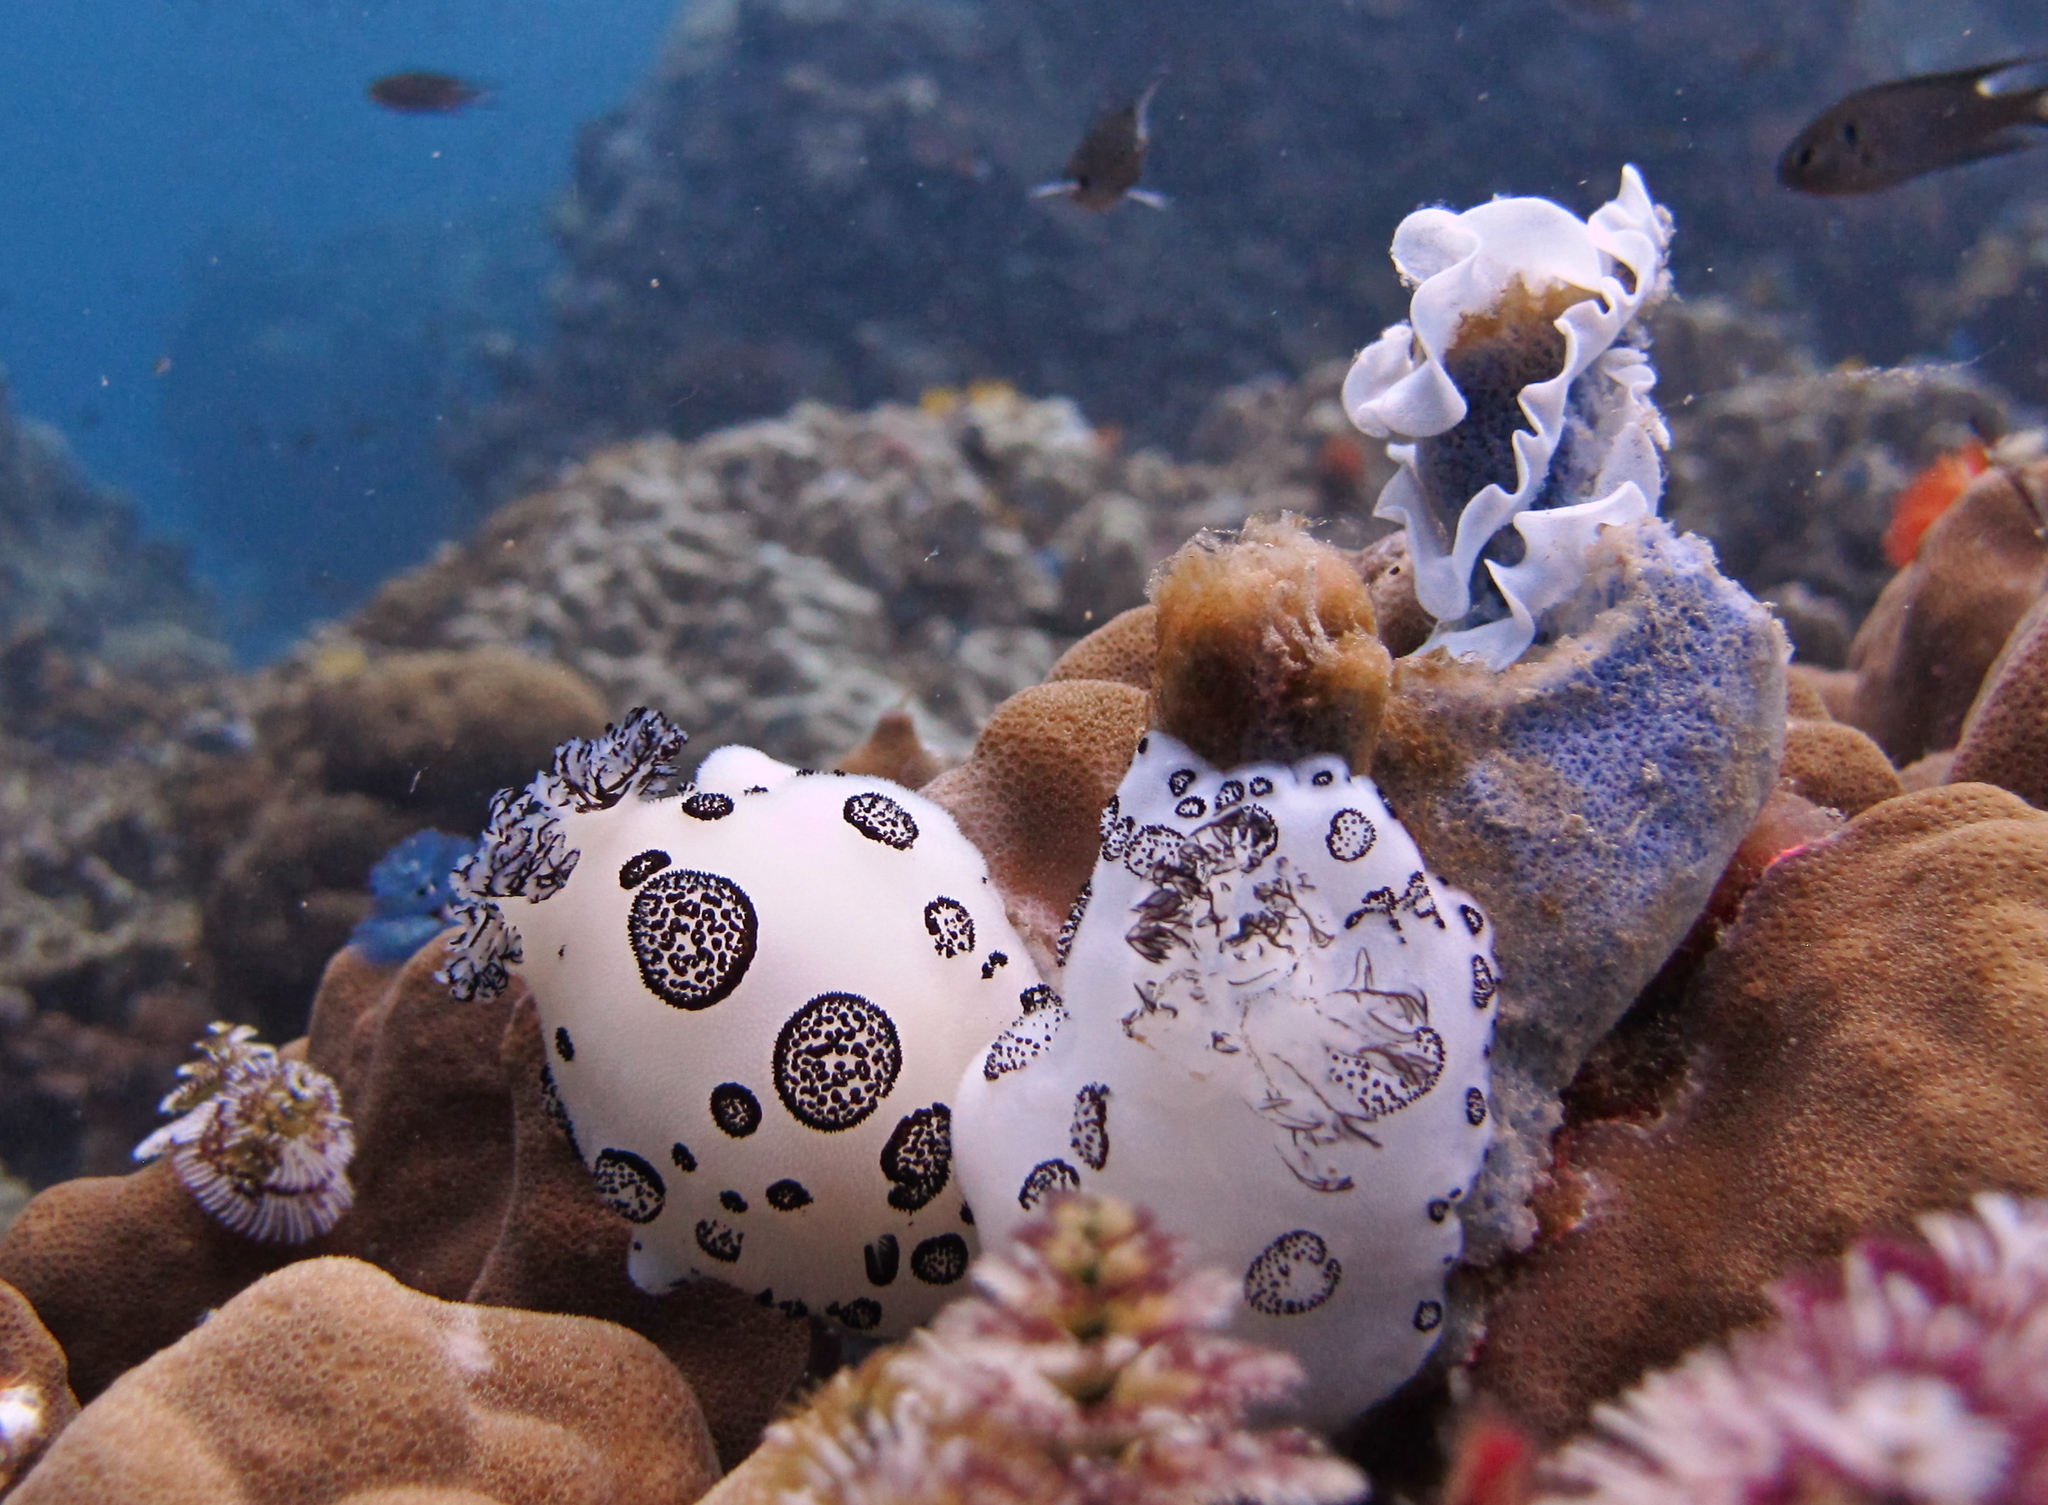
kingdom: Animalia
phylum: Mollusca
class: Gastropoda
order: Nudibranchia
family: Discodorididae
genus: Jorunna
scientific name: Jorunna funebris
